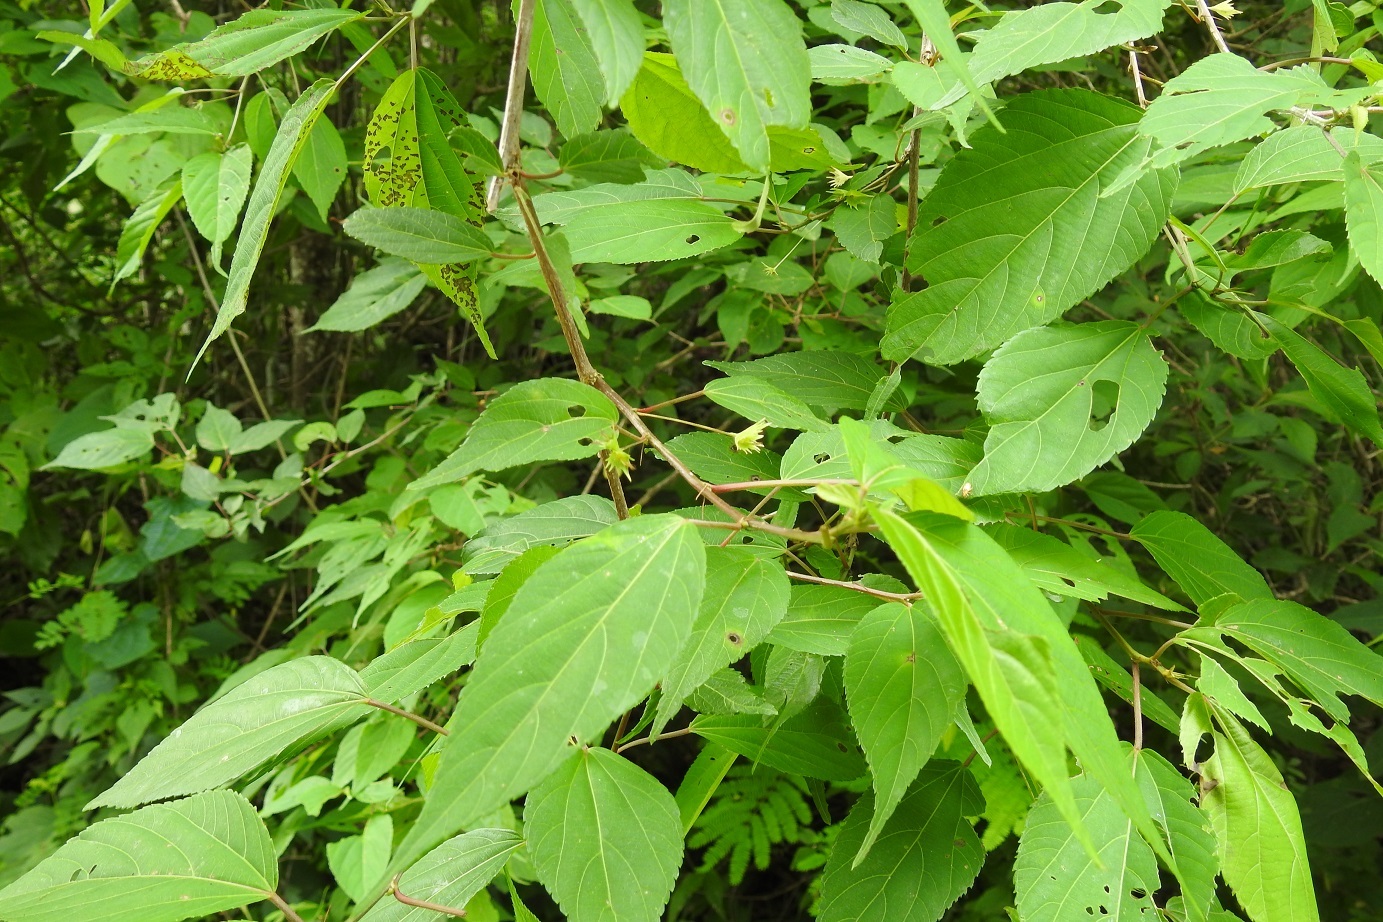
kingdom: Plantae
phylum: Tracheophyta
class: Magnoliopsida
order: Malpighiales
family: Euphorbiaceae
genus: Acalypha
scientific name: Acalypha leptopoda
